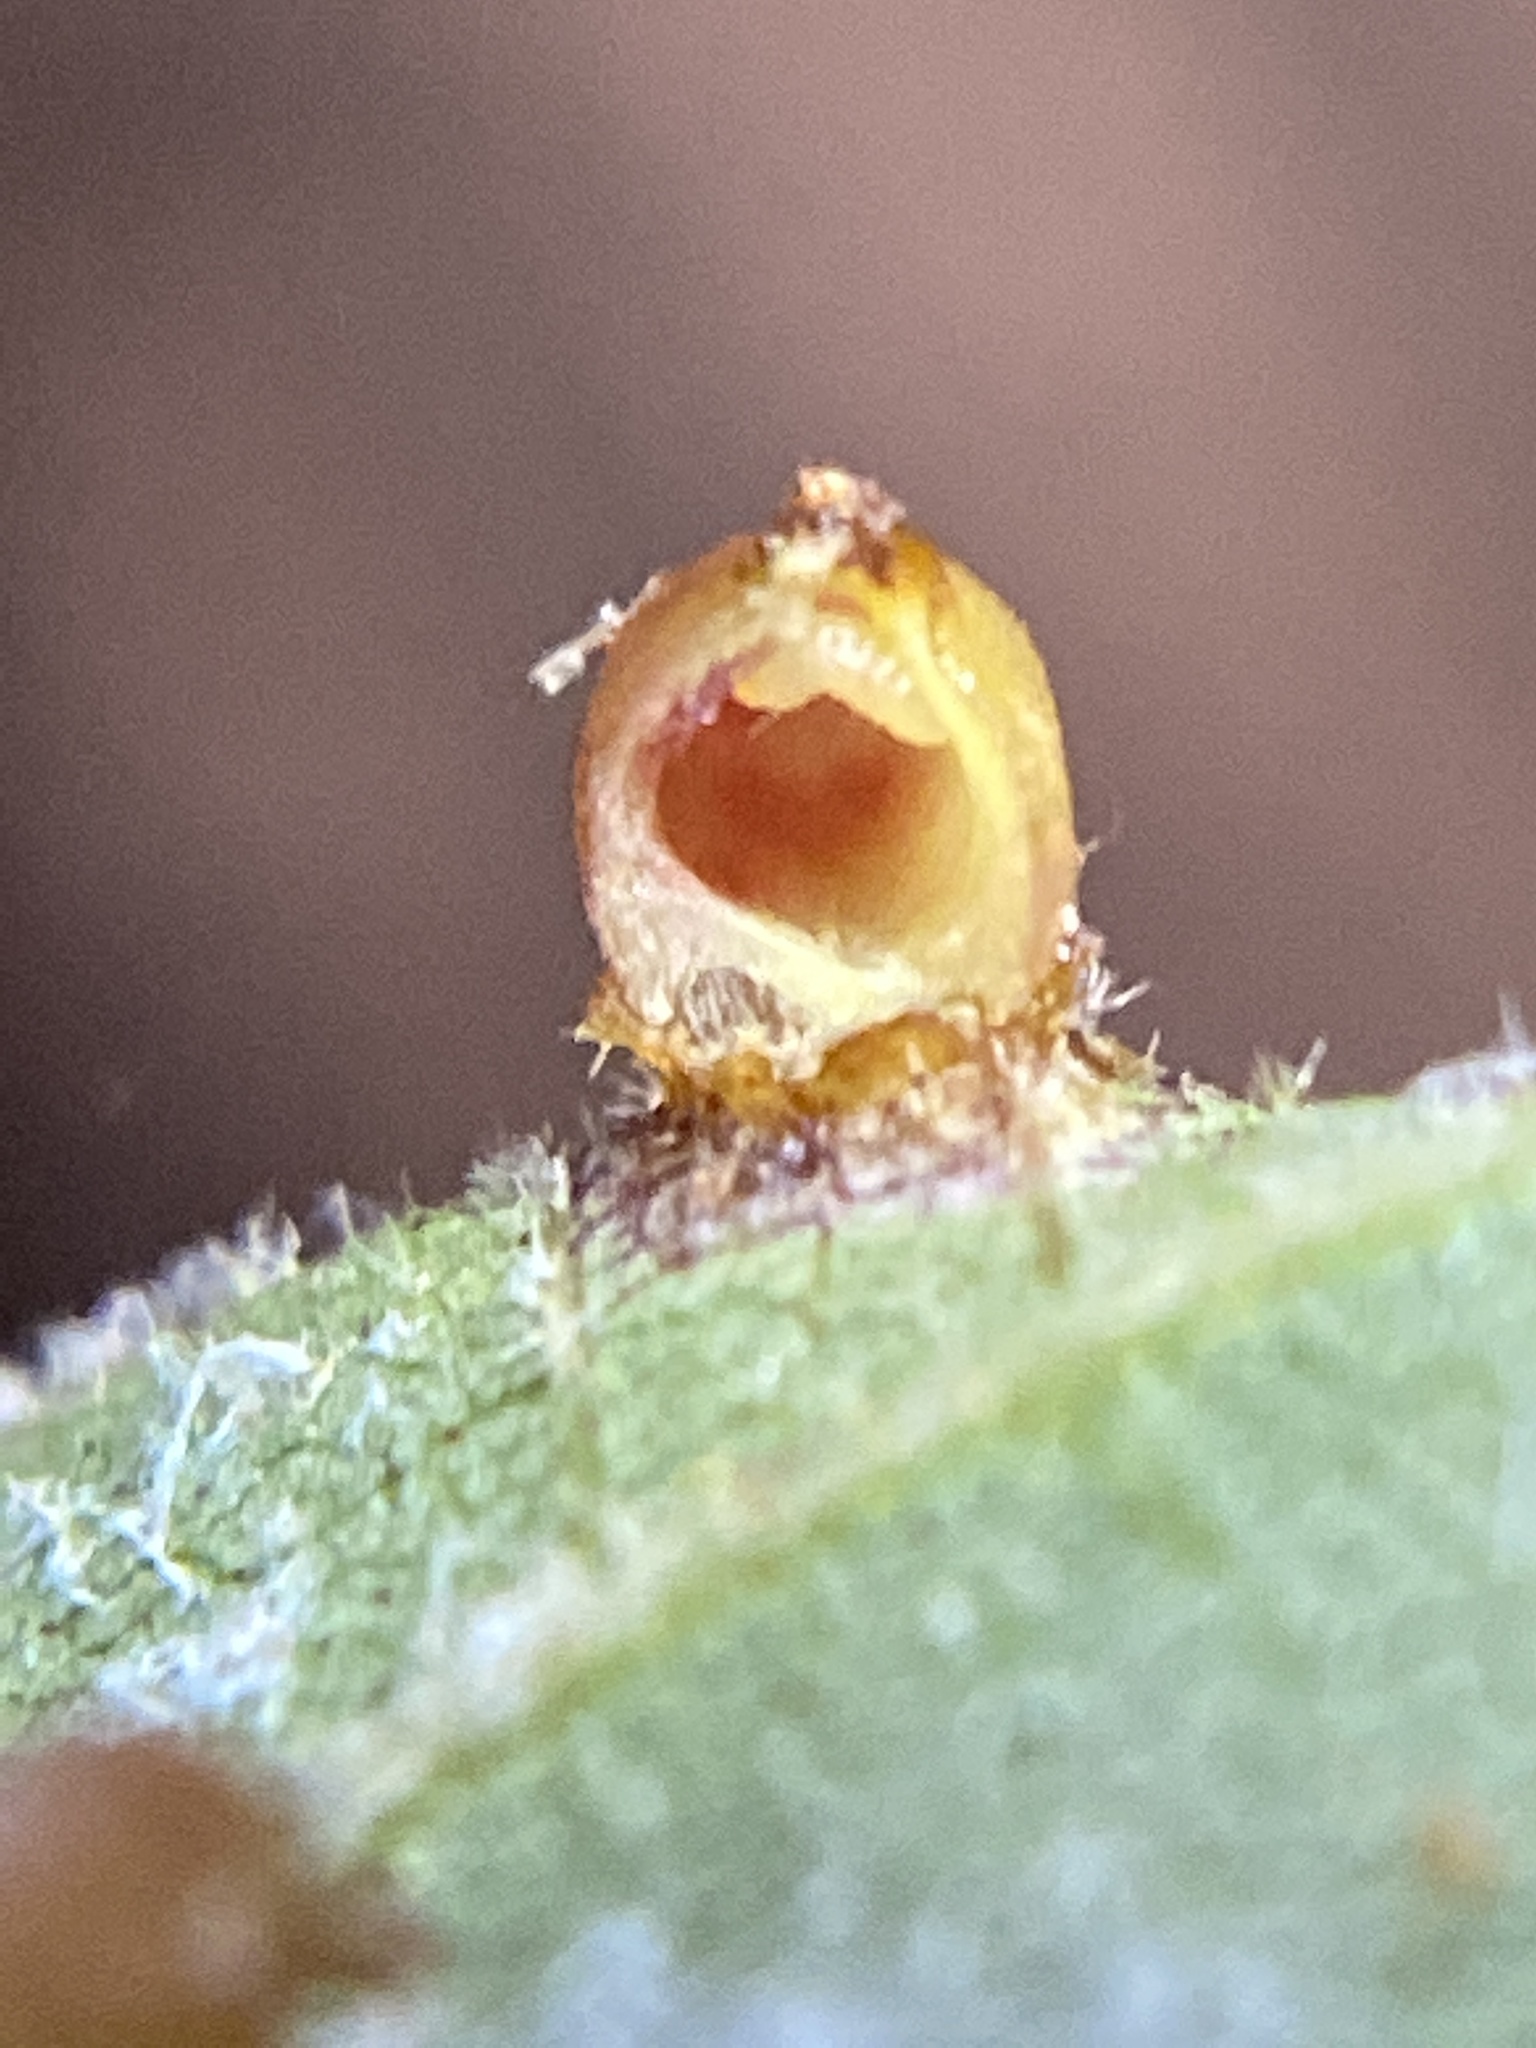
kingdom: Animalia
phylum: Arthropoda
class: Insecta
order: Diptera
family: Cecidomyiidae
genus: Caryomyia
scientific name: Caryomyia caryae
